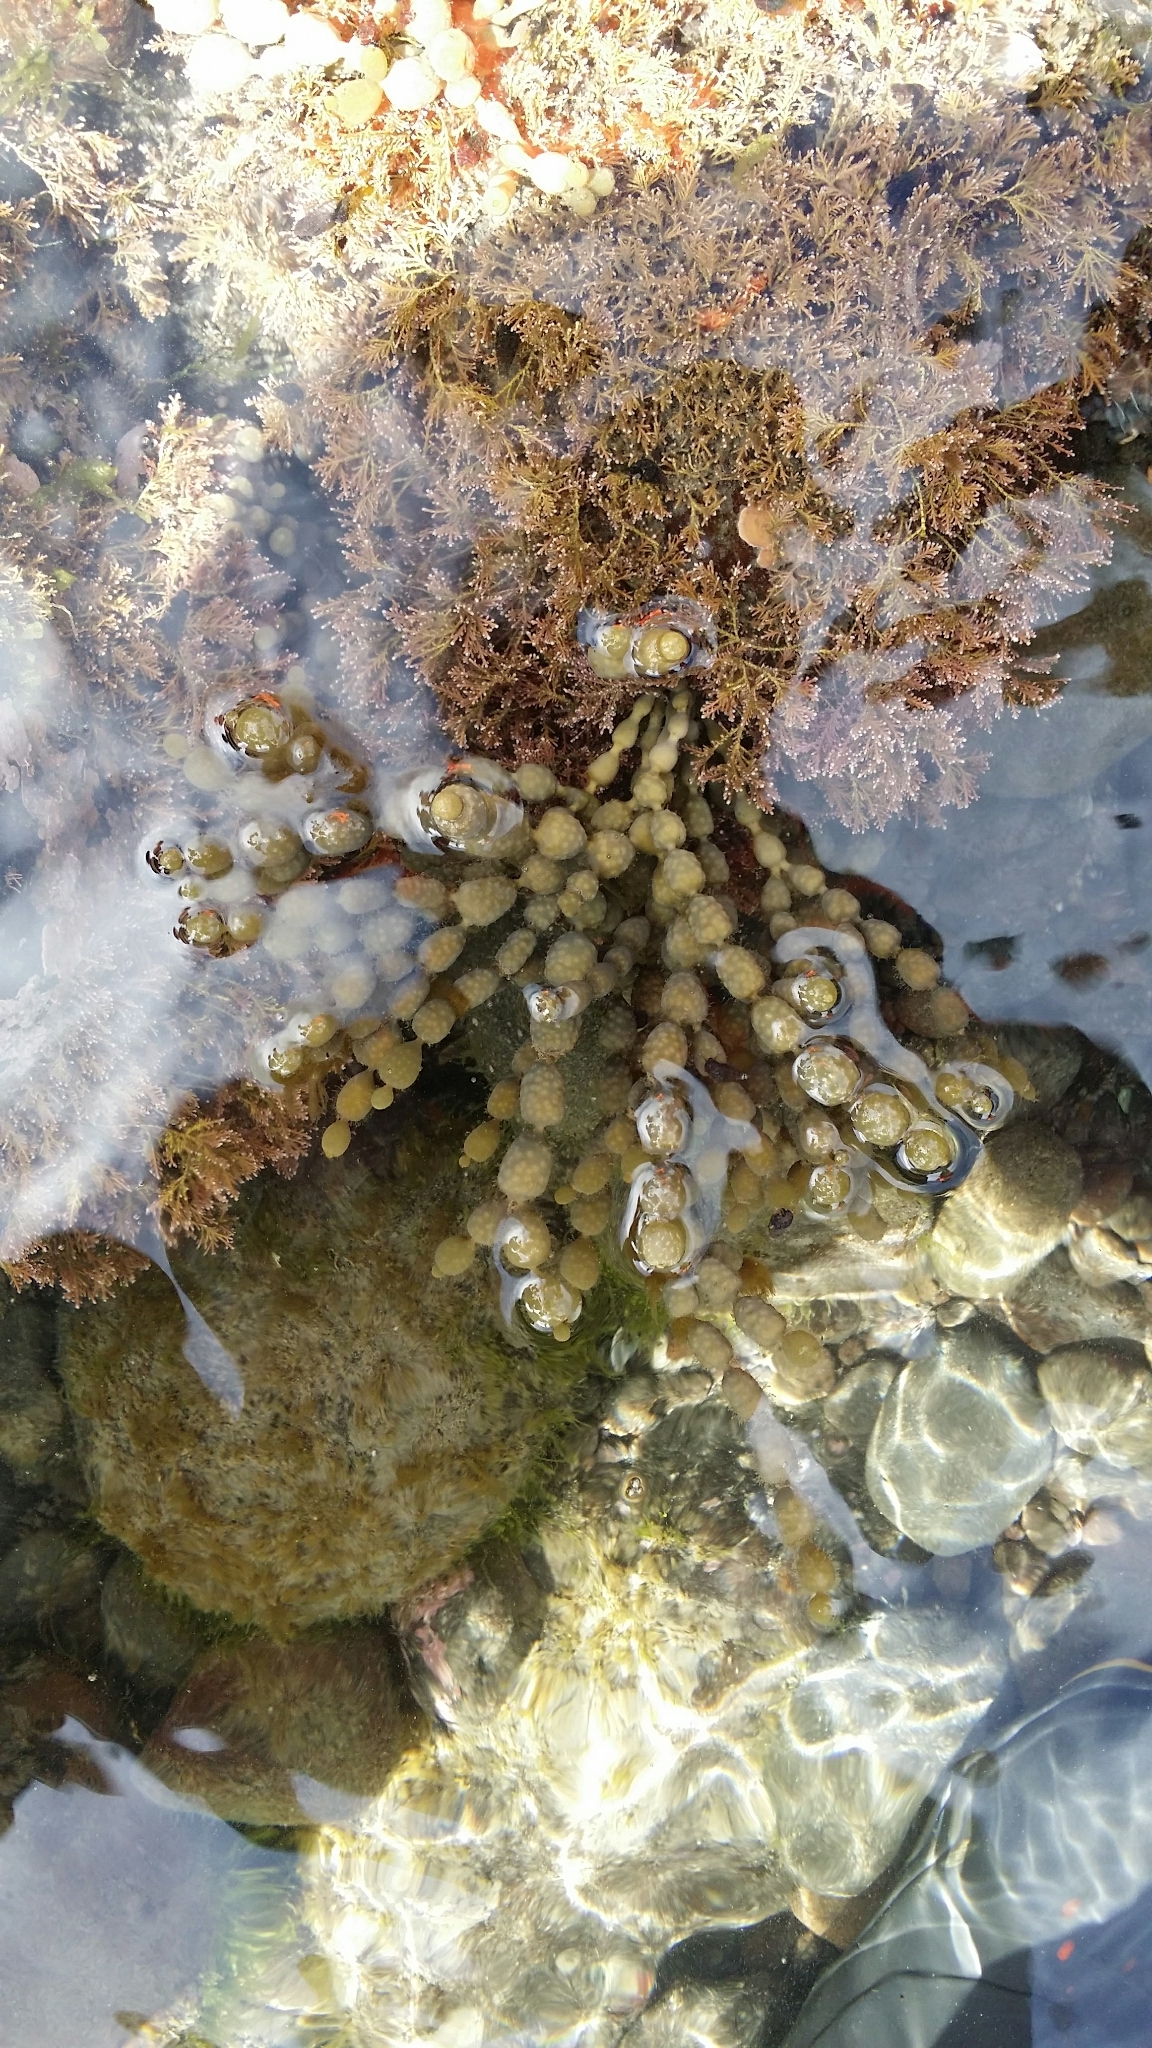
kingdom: Chromista
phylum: Ochrophyta
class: Phaeophyceae
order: Fucales
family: Hormosiraceae
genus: Hormosira
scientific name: Hormosira banksii
